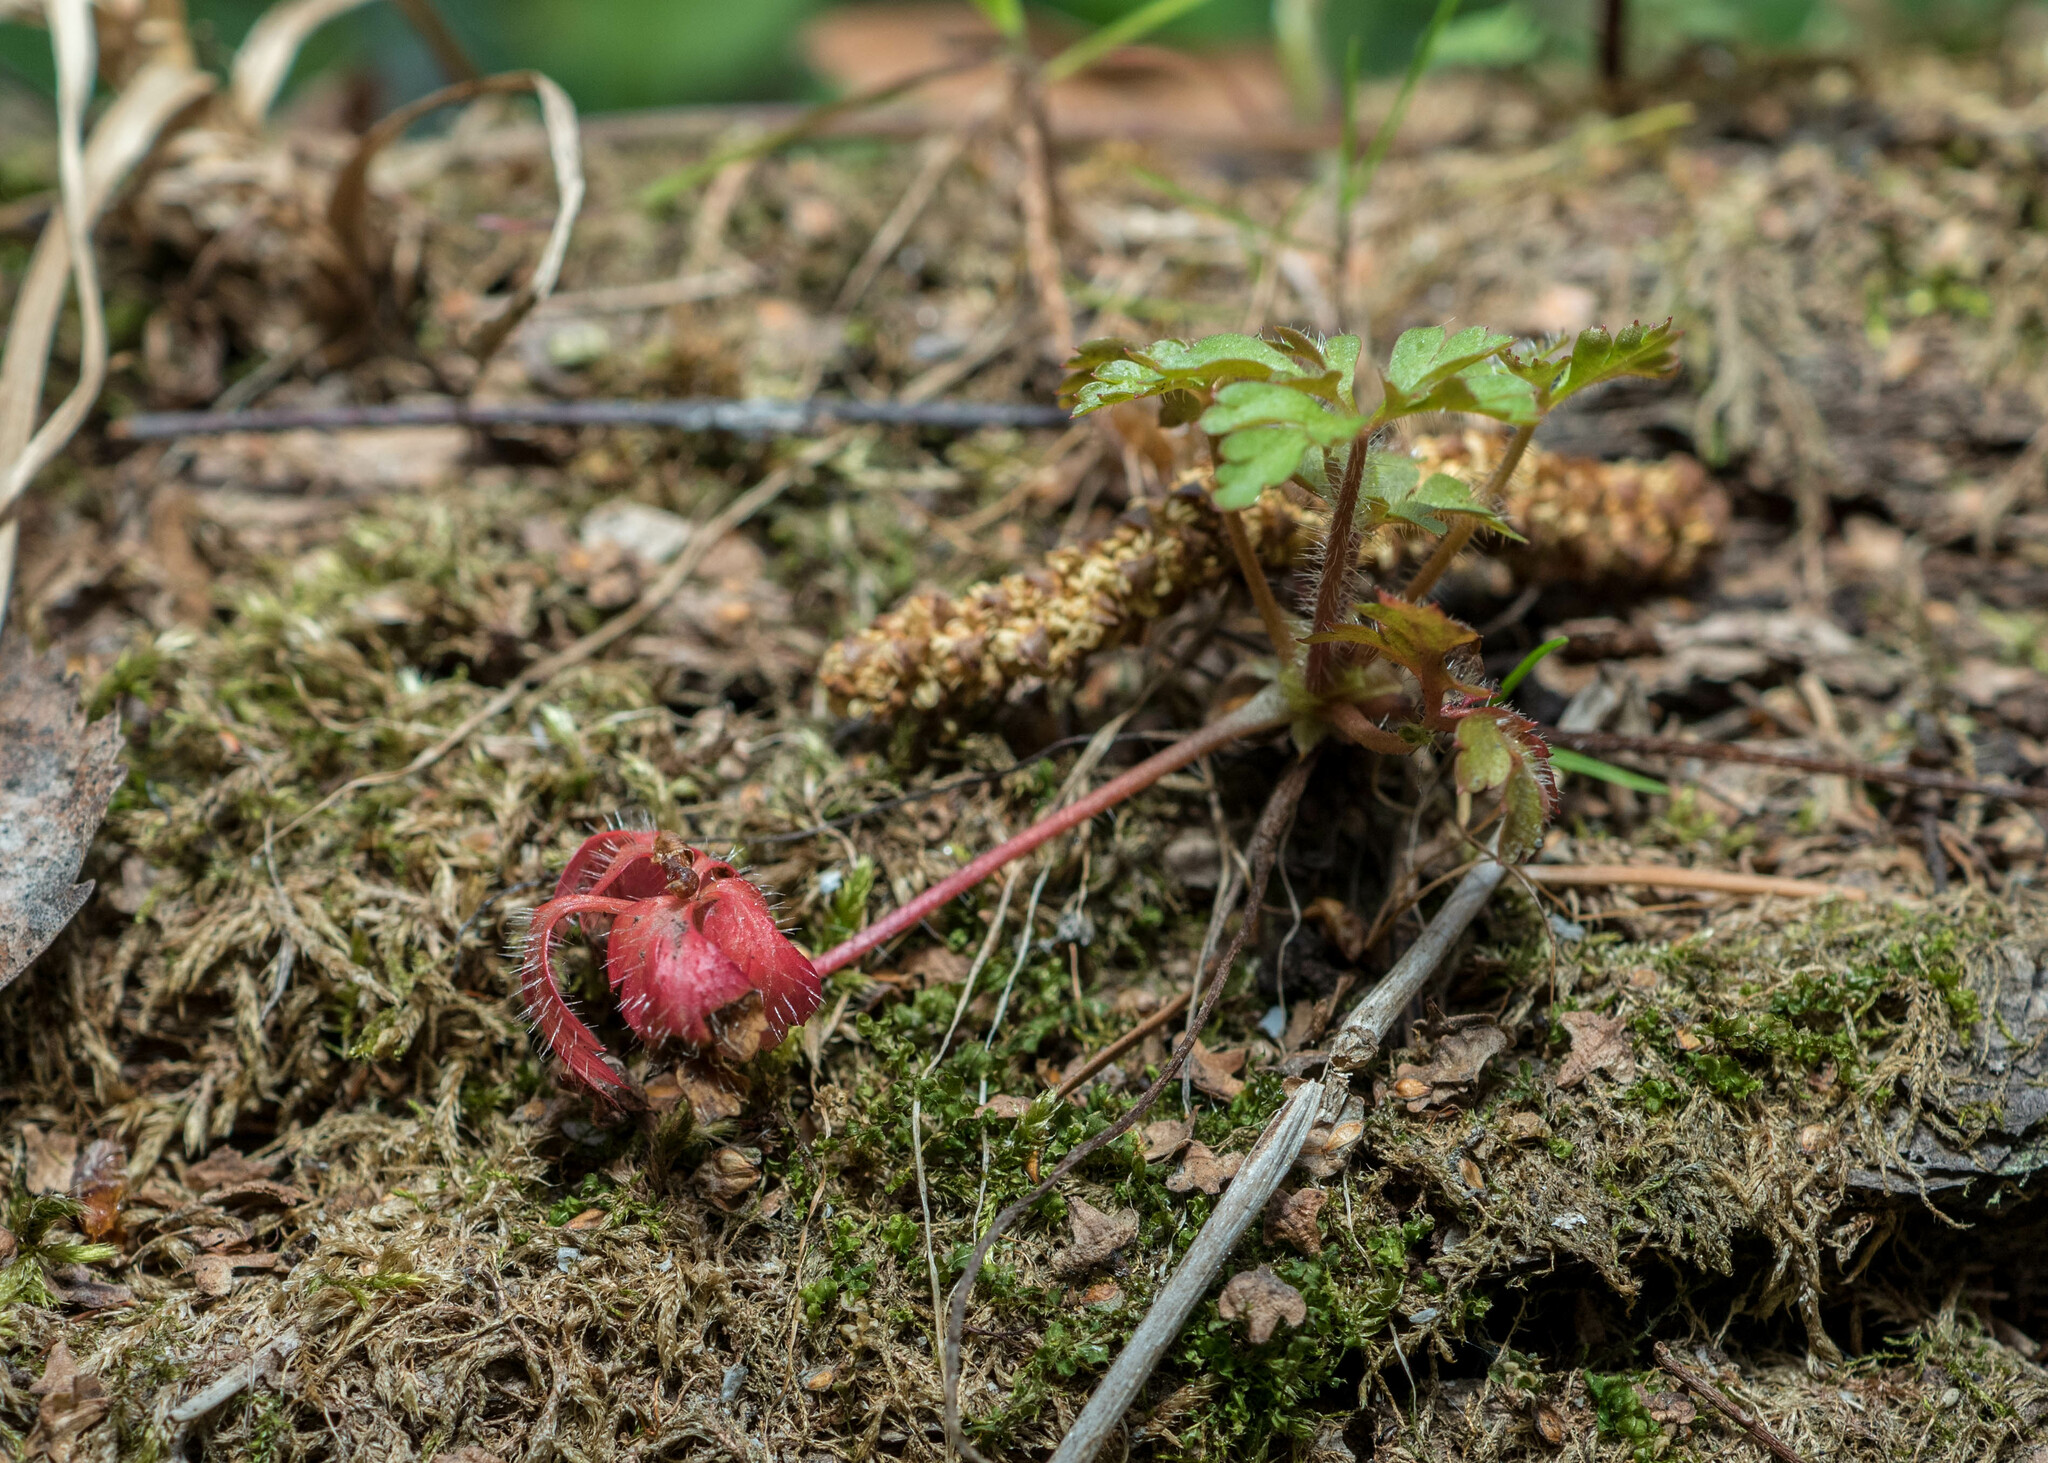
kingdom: Plantae
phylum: Tracheophyta
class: Magnoliopsida
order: Geraniales
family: Geraniaceae
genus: Geranium
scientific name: Geranium robertianum
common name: Herb-robert
